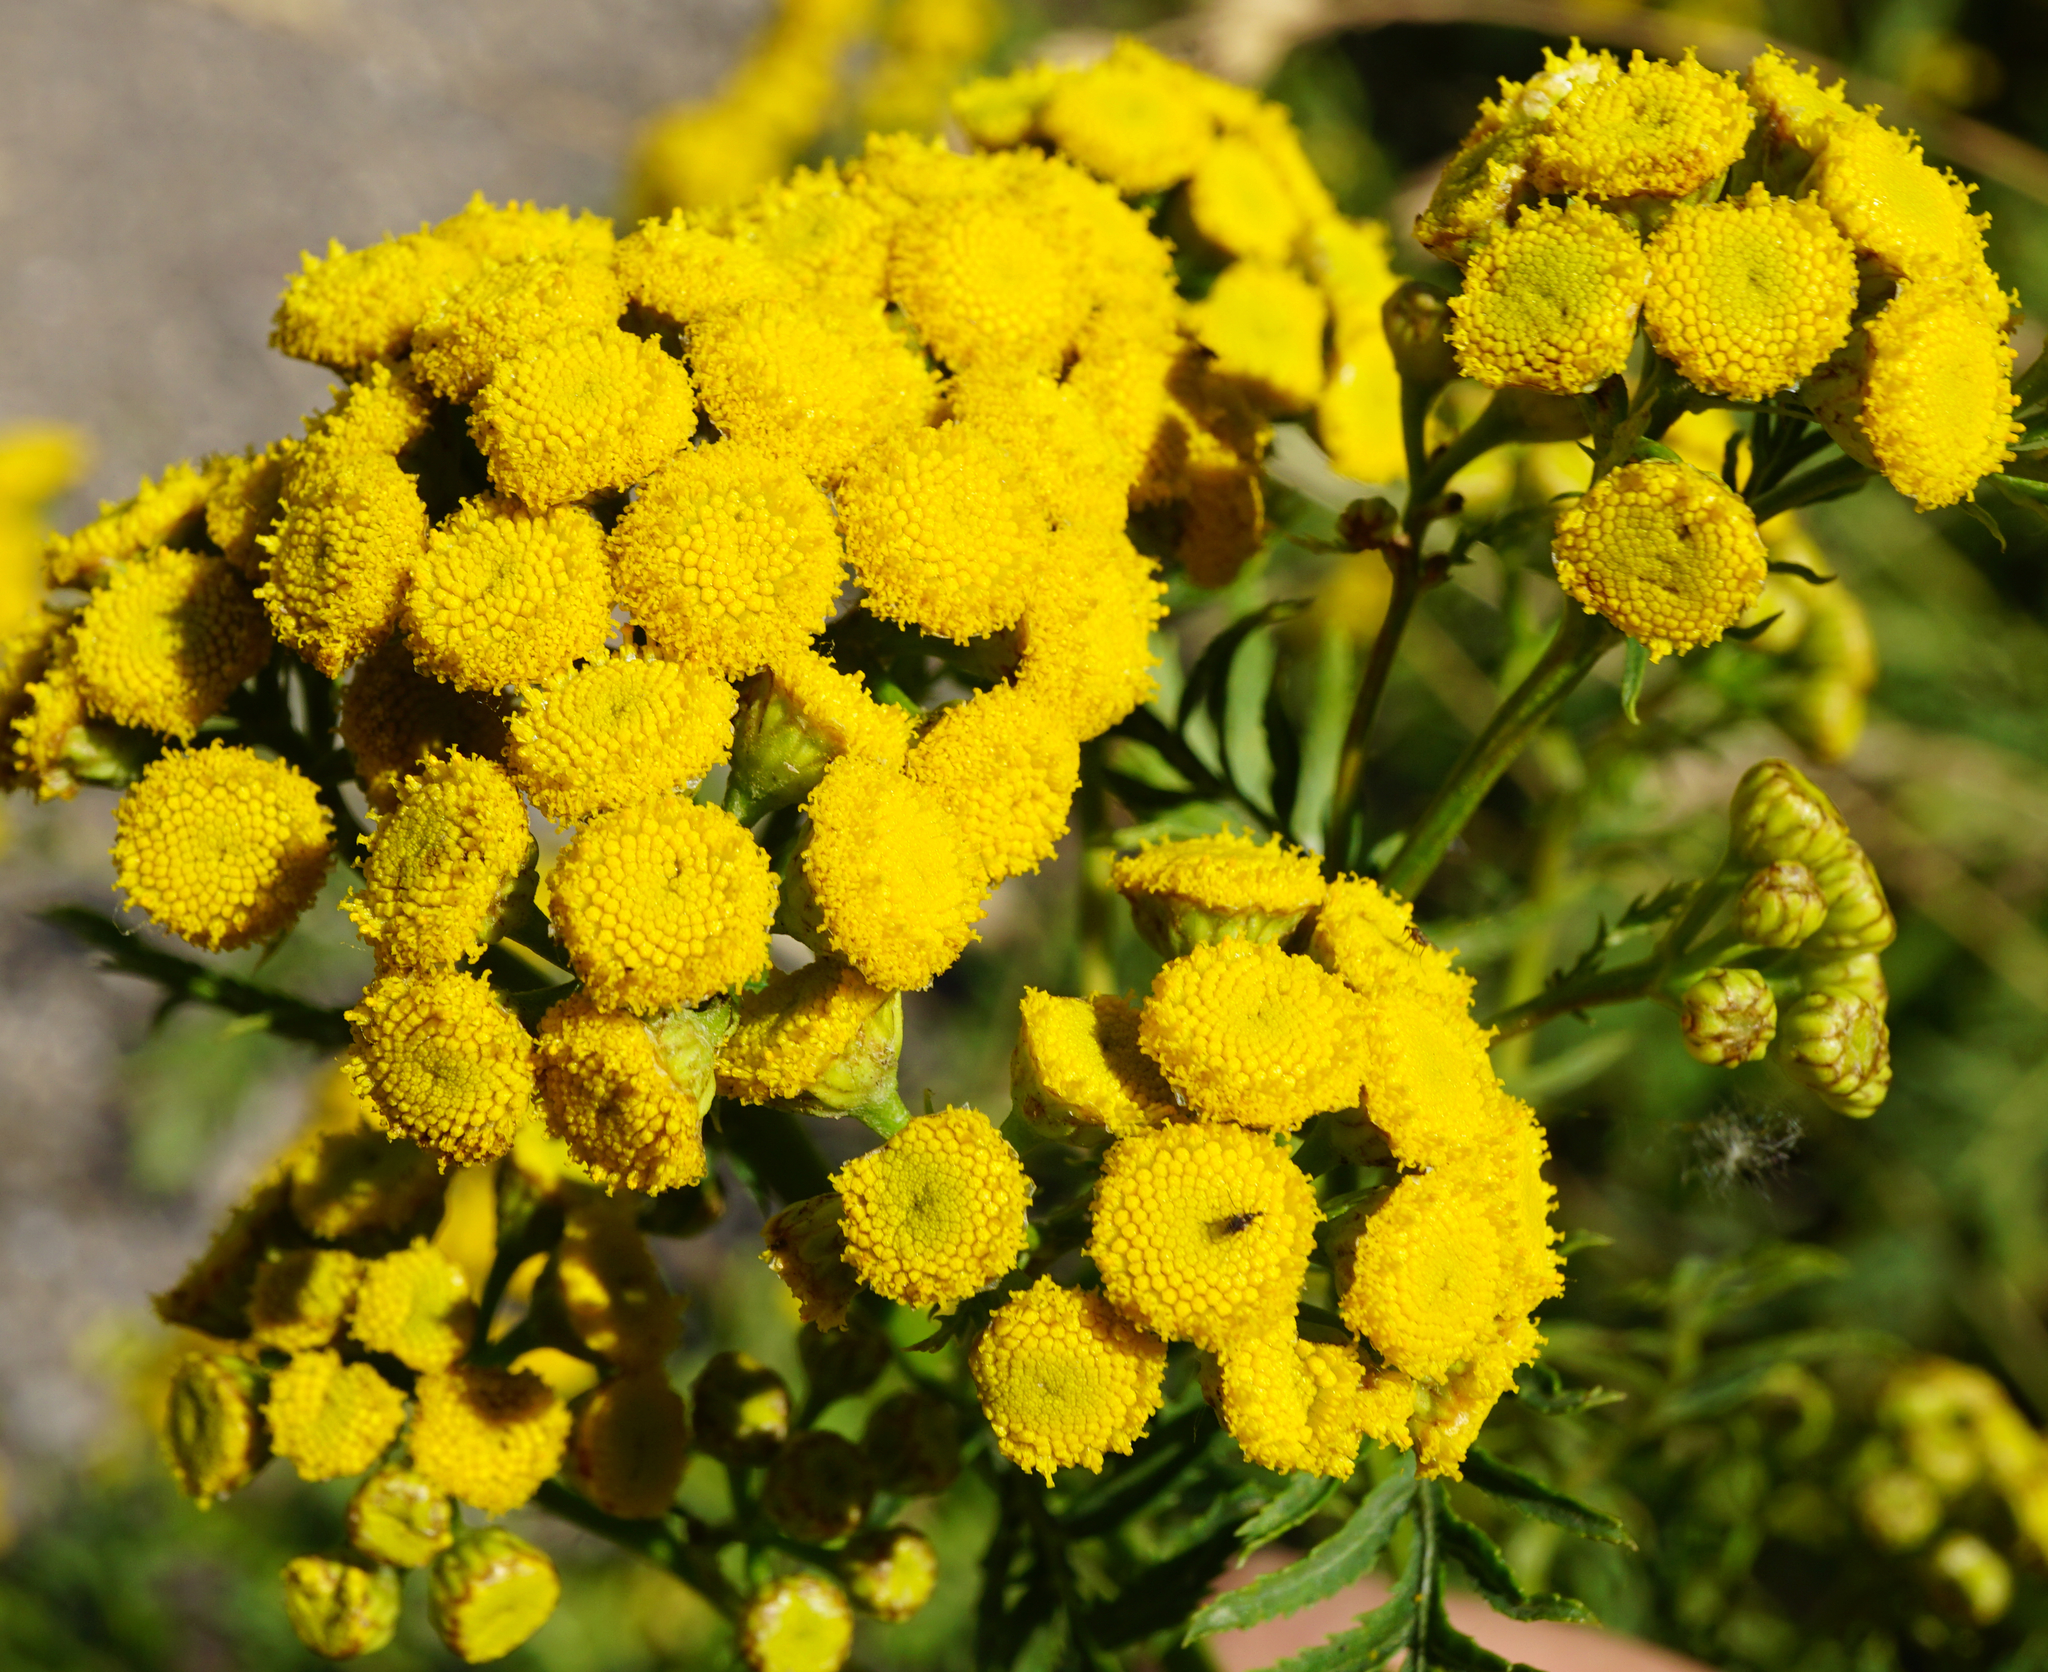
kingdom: Plantae
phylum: Tracheophyta
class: Magnoliopsida
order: Asterales
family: Asteraceae
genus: Tanacetum
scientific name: Tanacetum vulgare
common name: Common tansy
